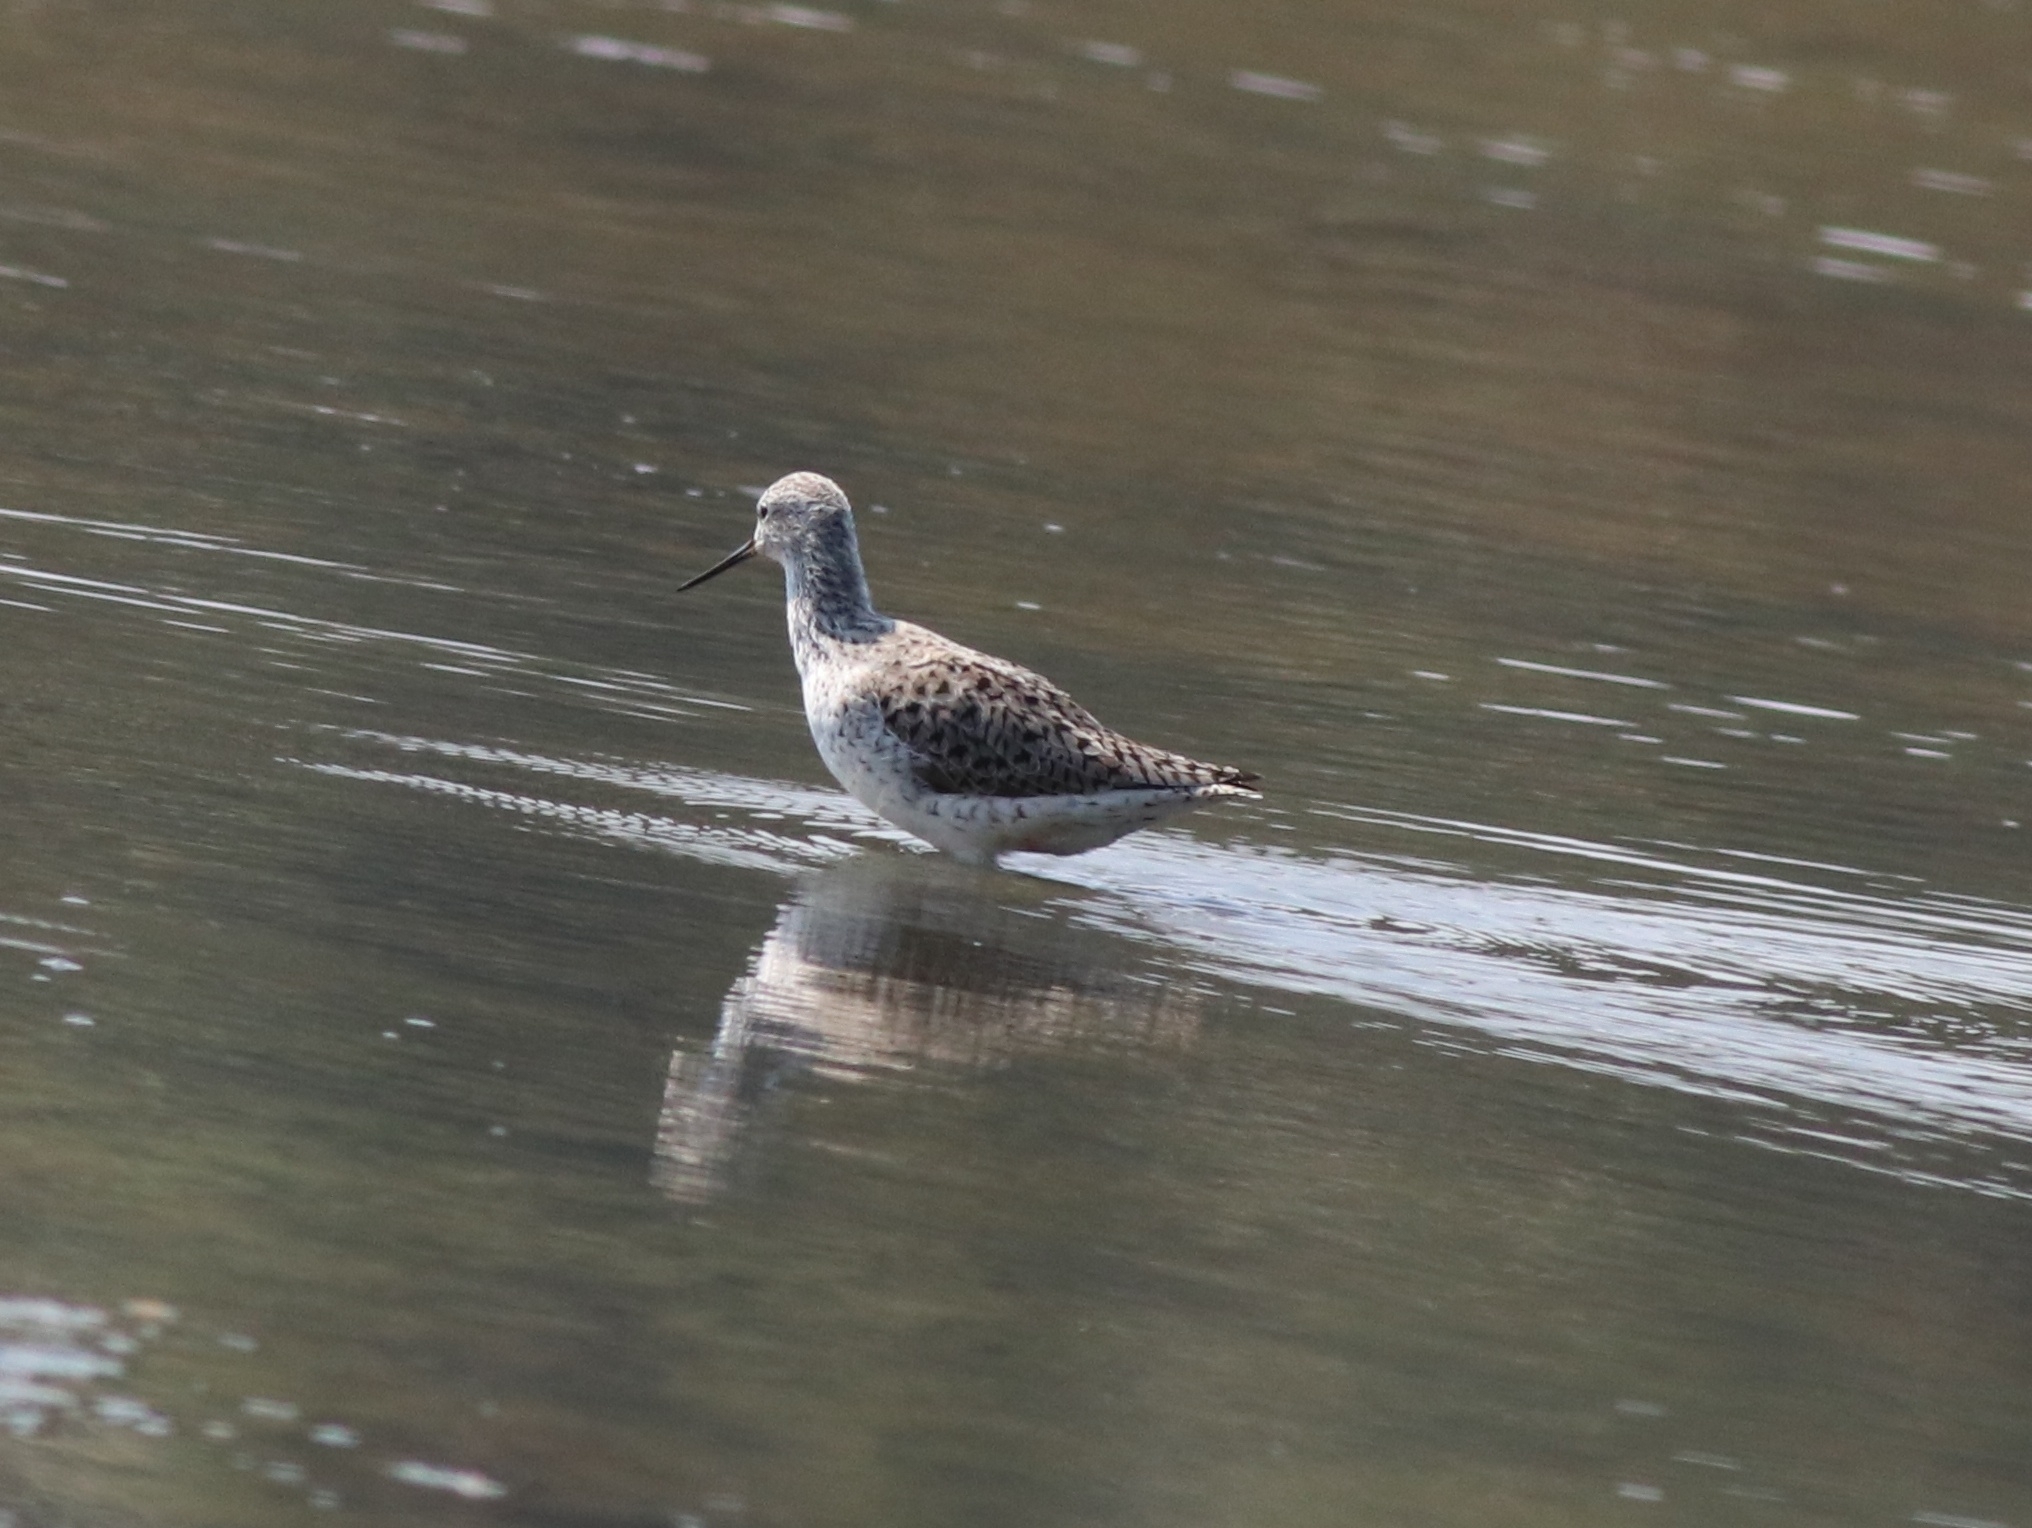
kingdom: Animalia
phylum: Chordata
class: Aves
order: Charadriiformes
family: Scolopacidae
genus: Tringa
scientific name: Tringa stagnatilis
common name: Marsh sandpiper
